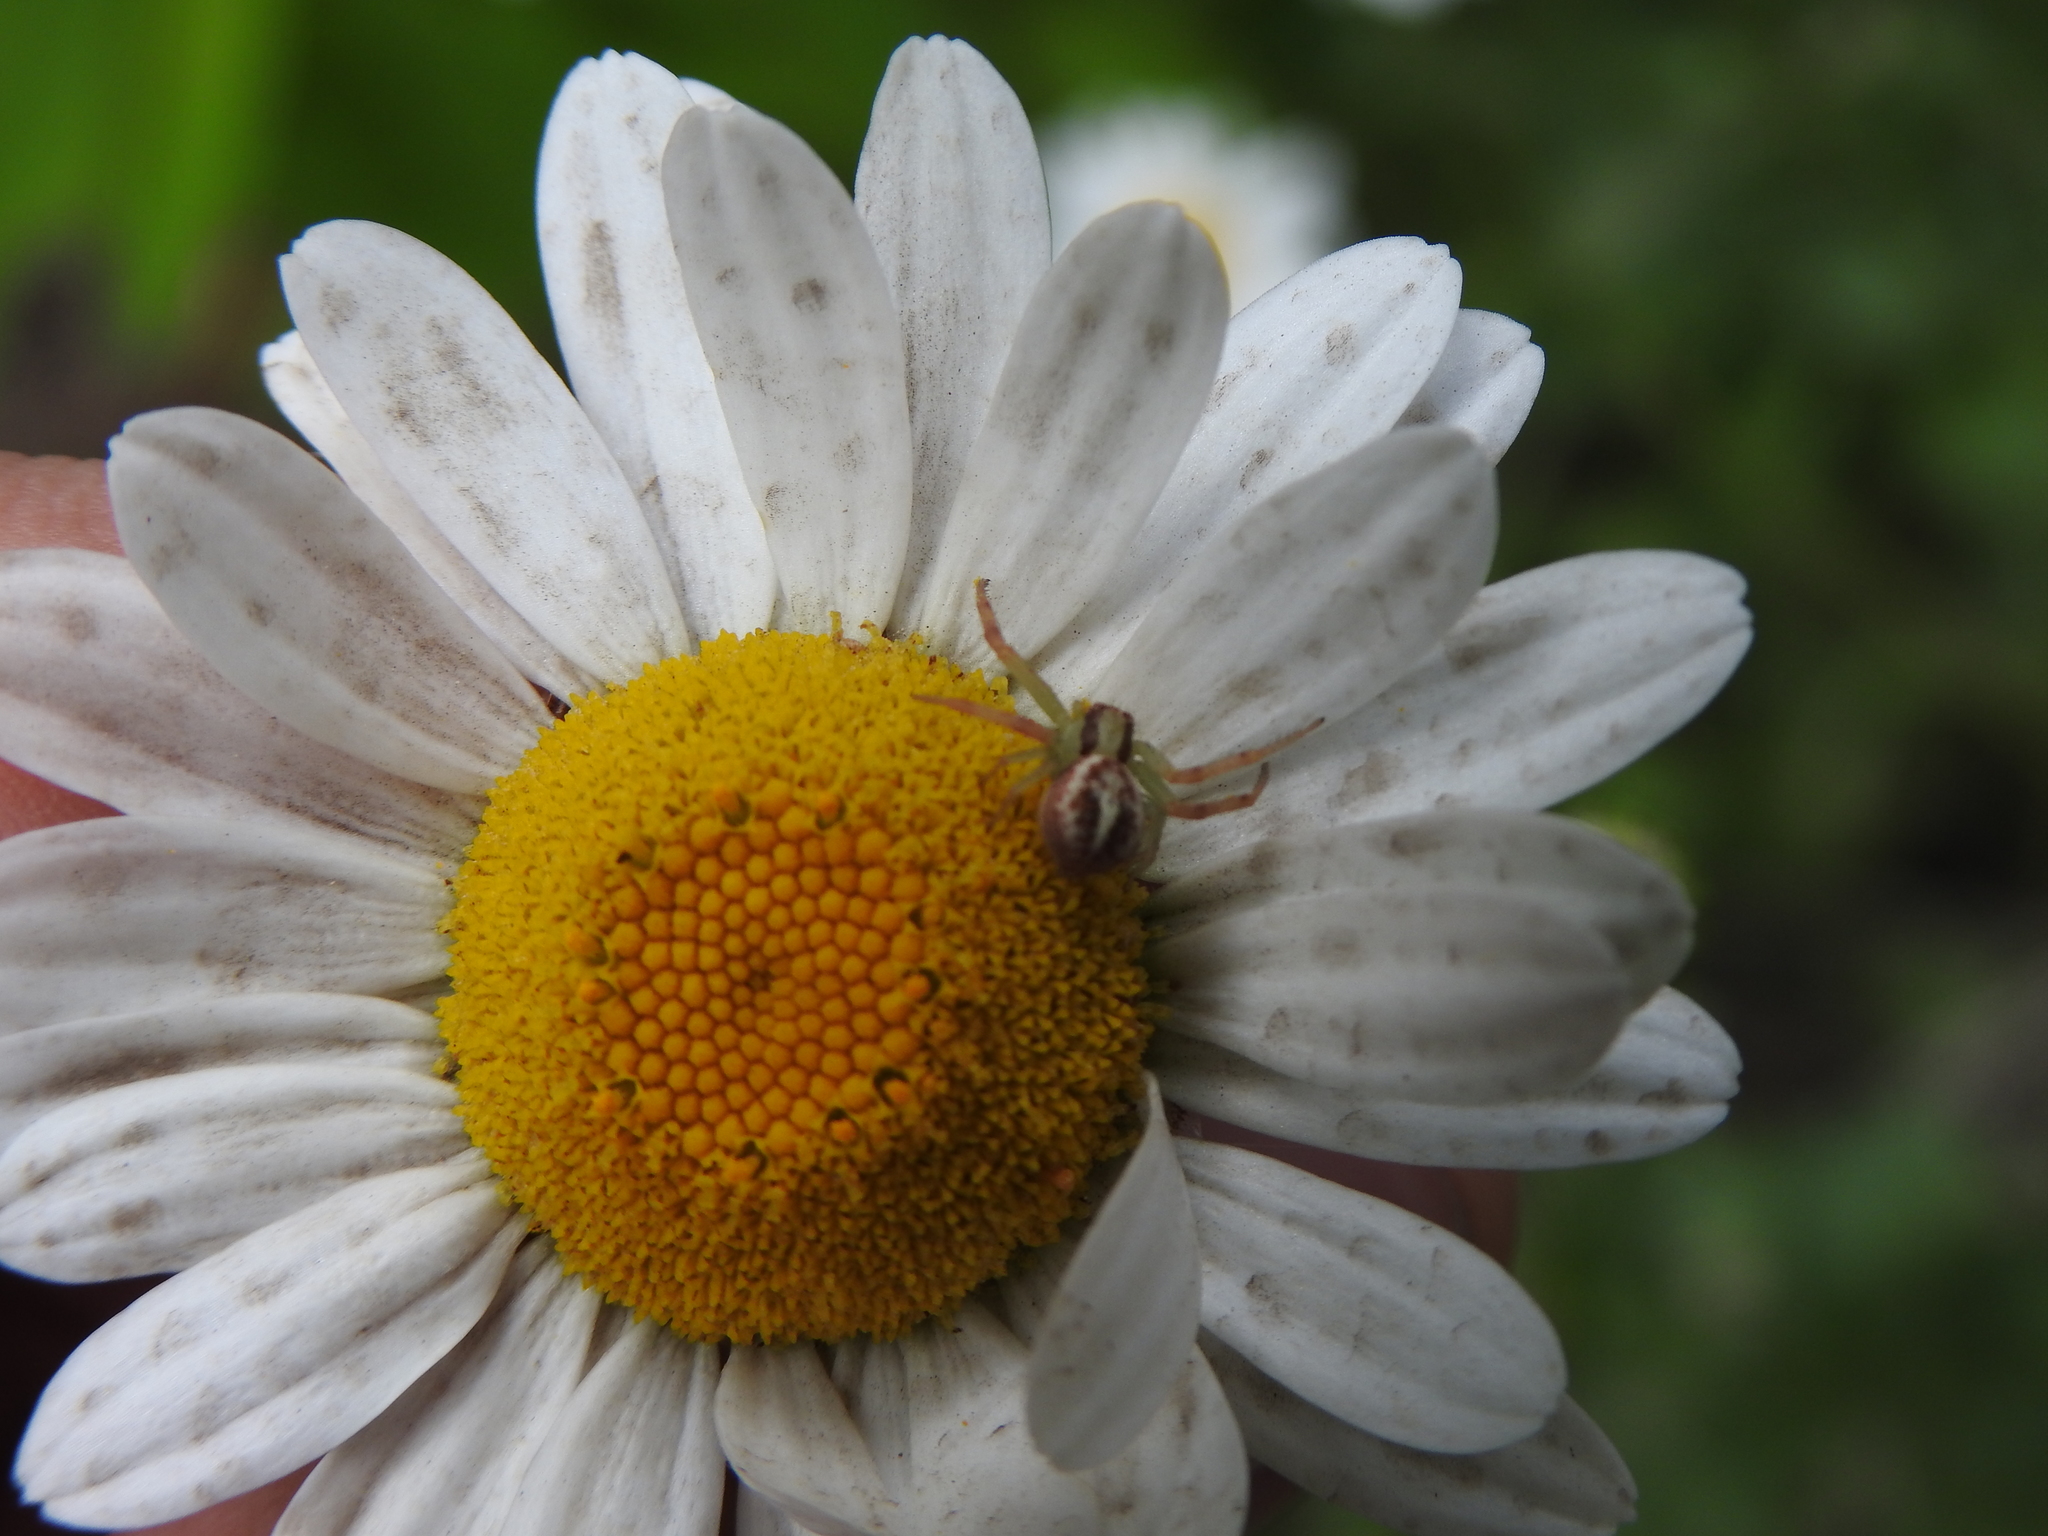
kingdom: Animalia
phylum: Arthropoda
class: Arachnida
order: Araneae
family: Thomisidae
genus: Misumenops
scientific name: Misumenops
